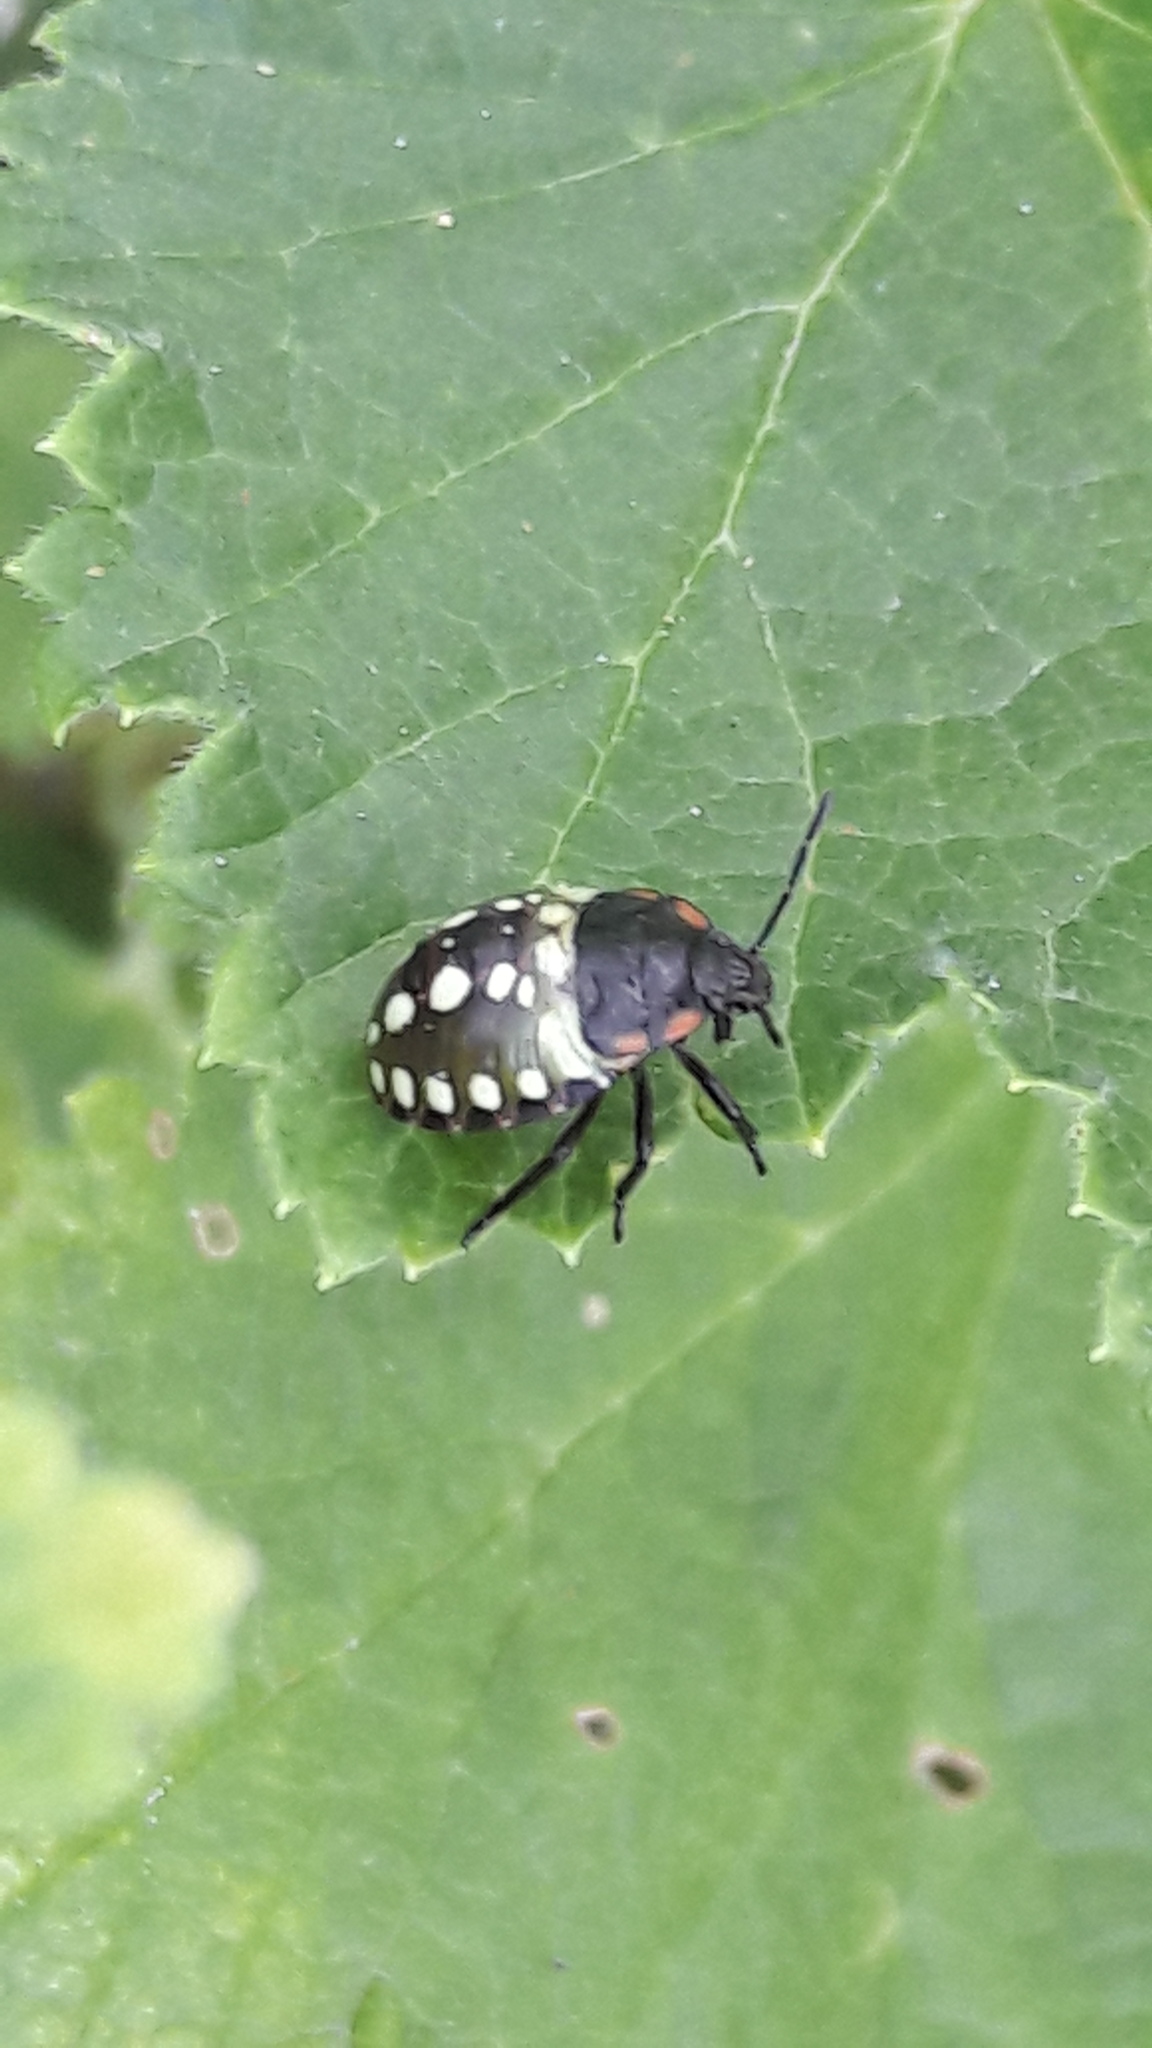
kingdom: Animalia
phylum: Arthropoda
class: Insecta
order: Hemiptera
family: Pentatomidae
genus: Nezara
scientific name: Nezara viridula
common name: Southern green stink bug
